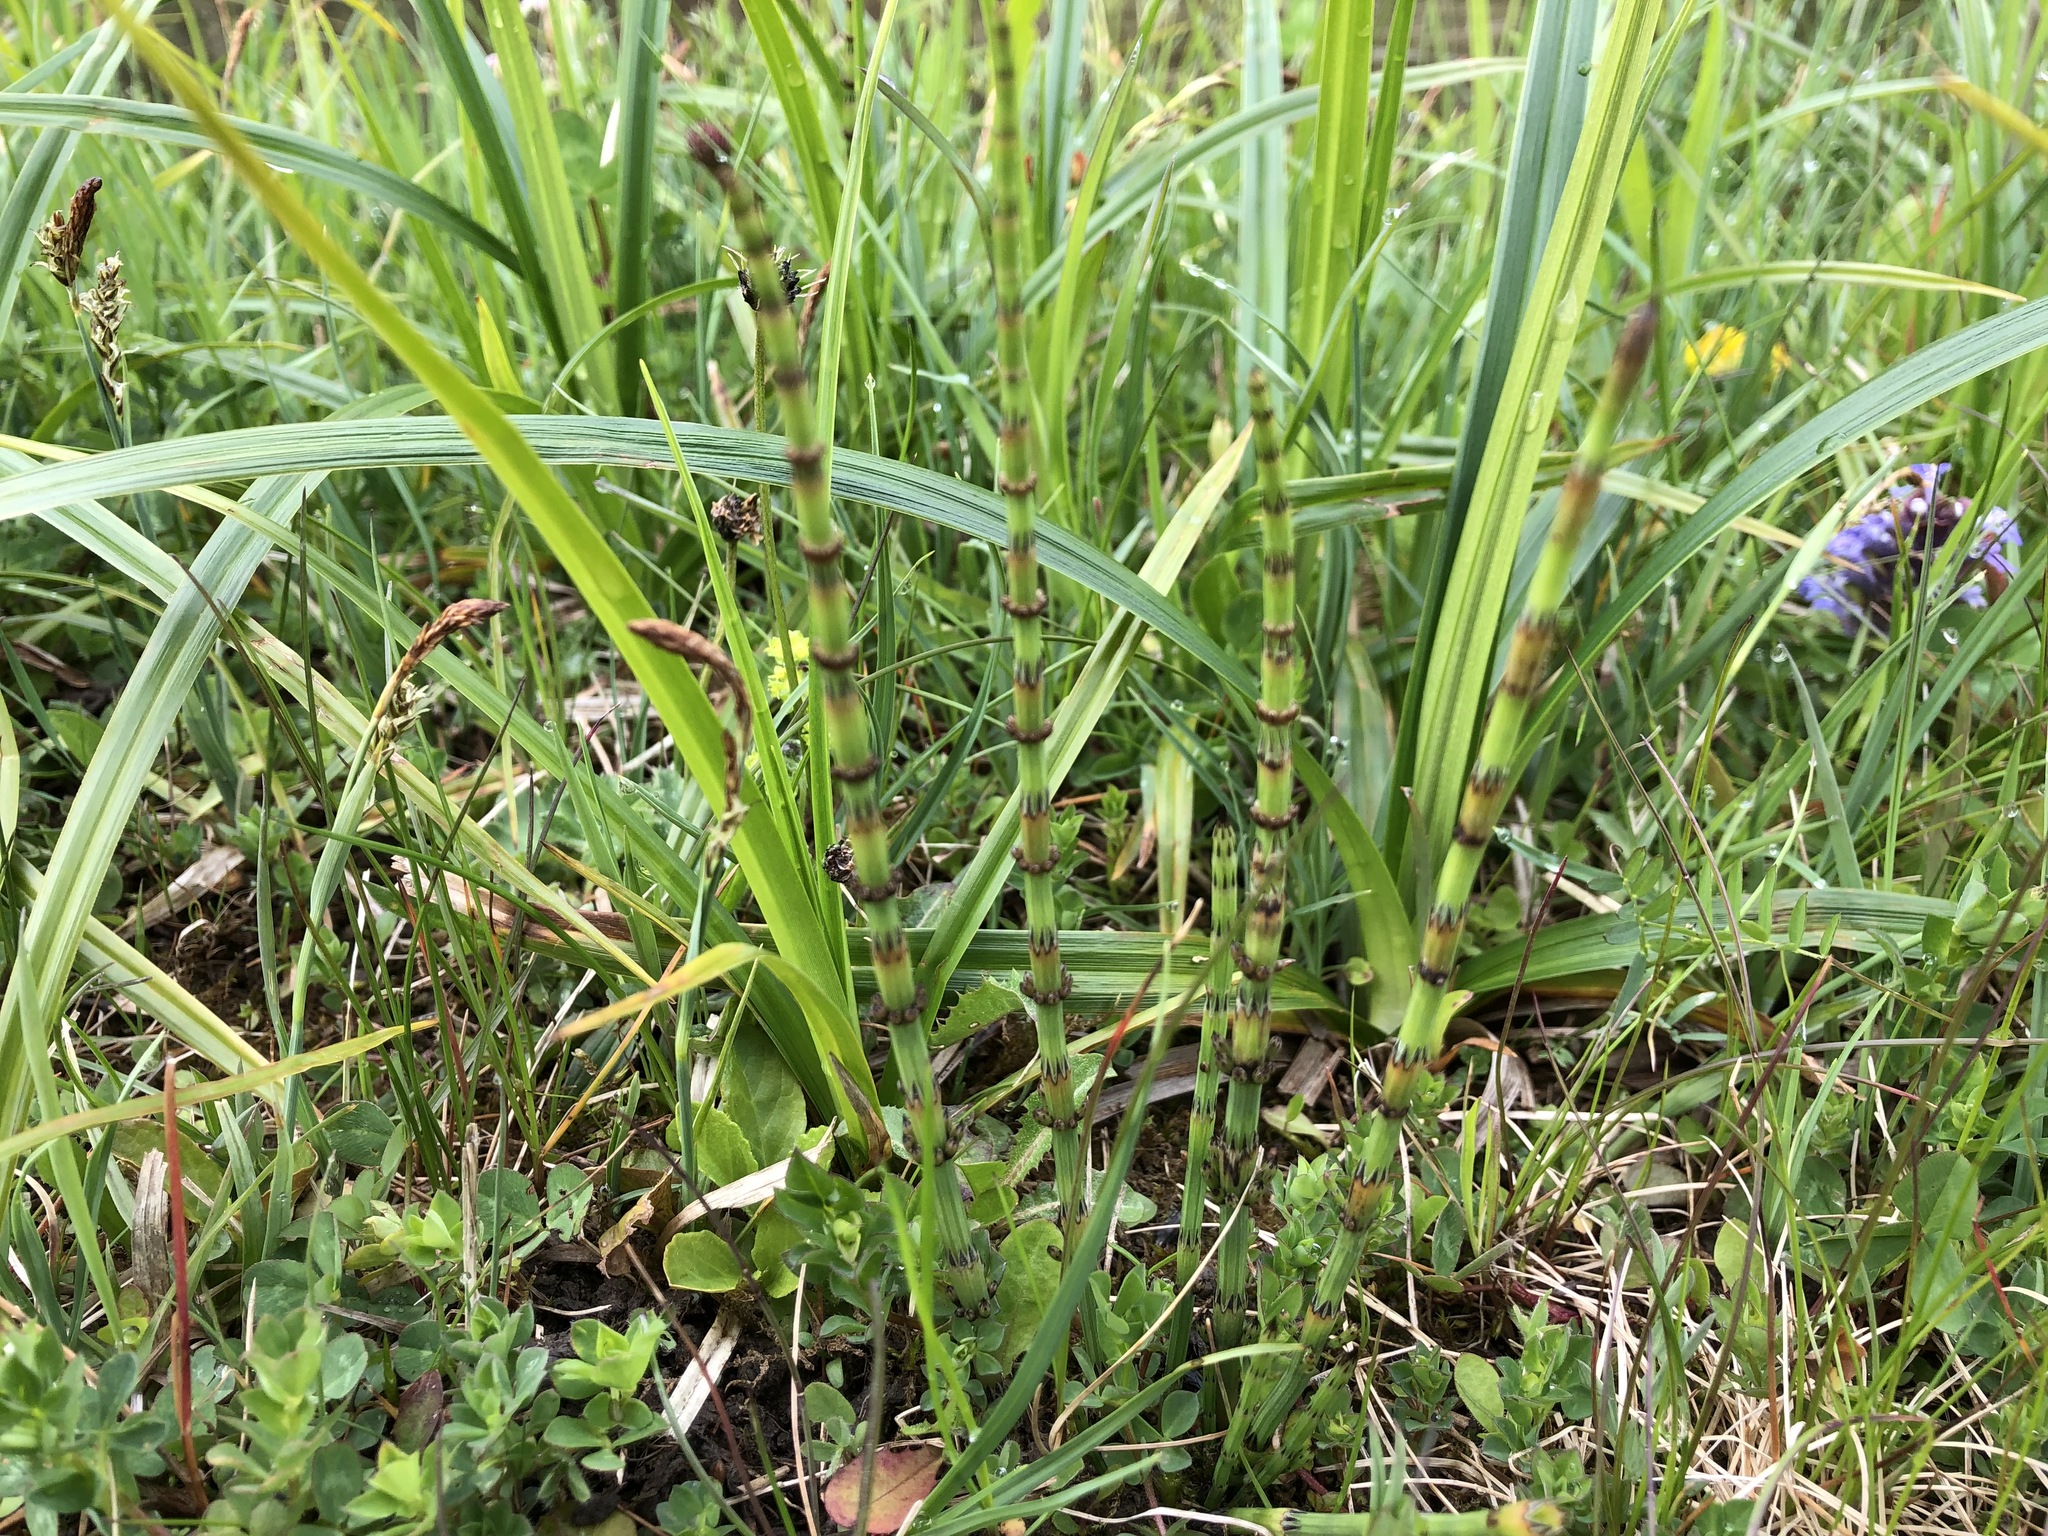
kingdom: Plantae
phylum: Tracheophyta
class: Polypodiopsida
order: Equisetales
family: Equisetaceae
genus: Equisetum
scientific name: Equisetum palustre
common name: Marsh horsetail
